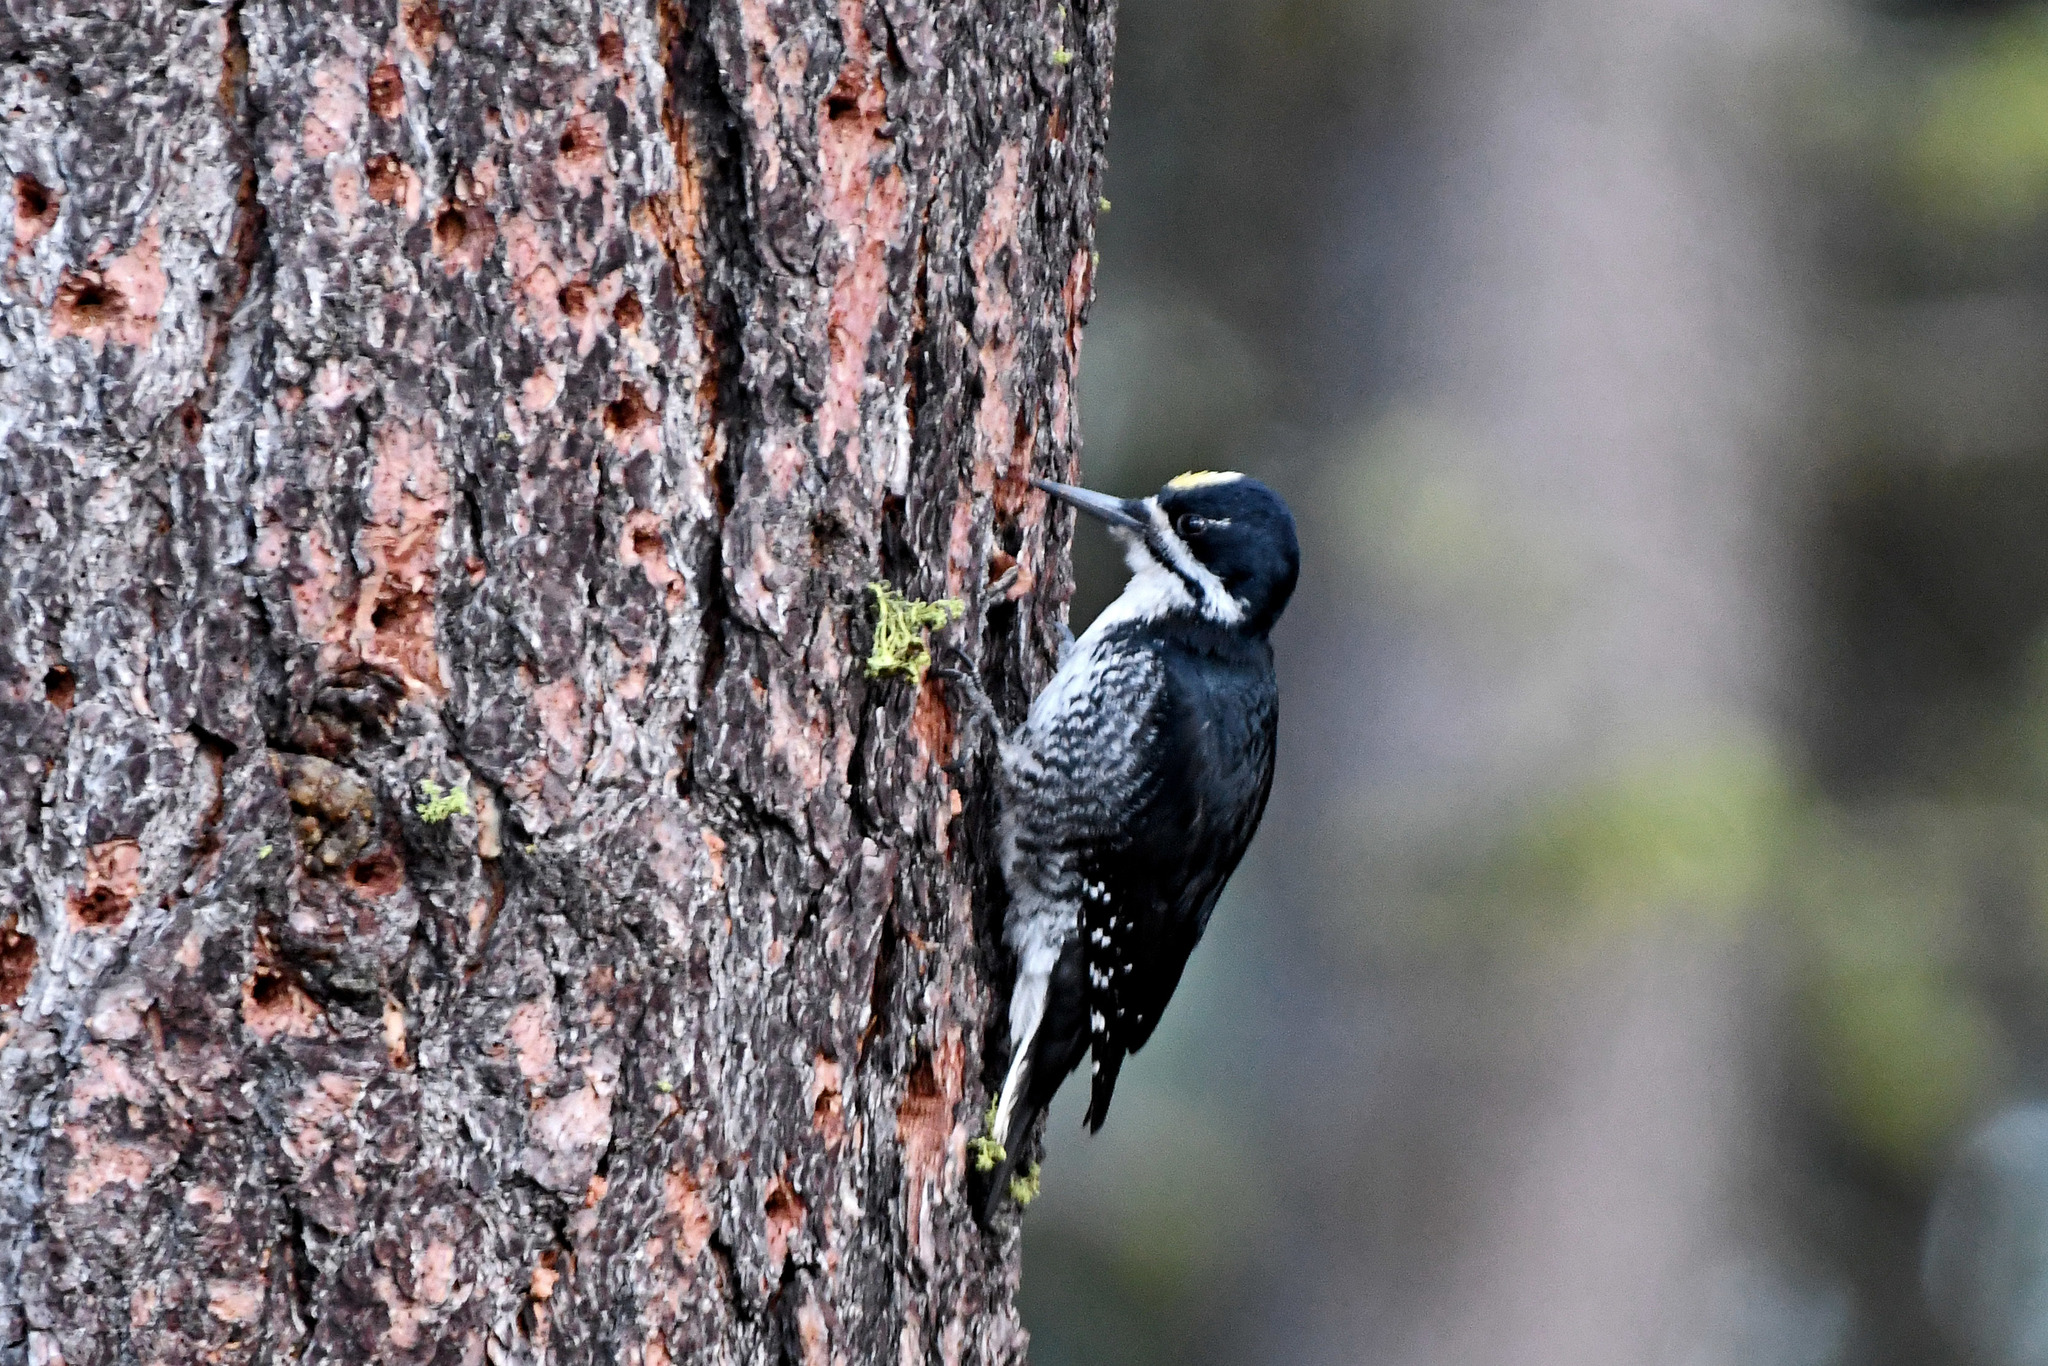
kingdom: Animalia
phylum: Chordata
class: Aves
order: Piciformes
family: Picidae
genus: Picoides
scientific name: Picoides arcticus
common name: Black-backed woodpecker
